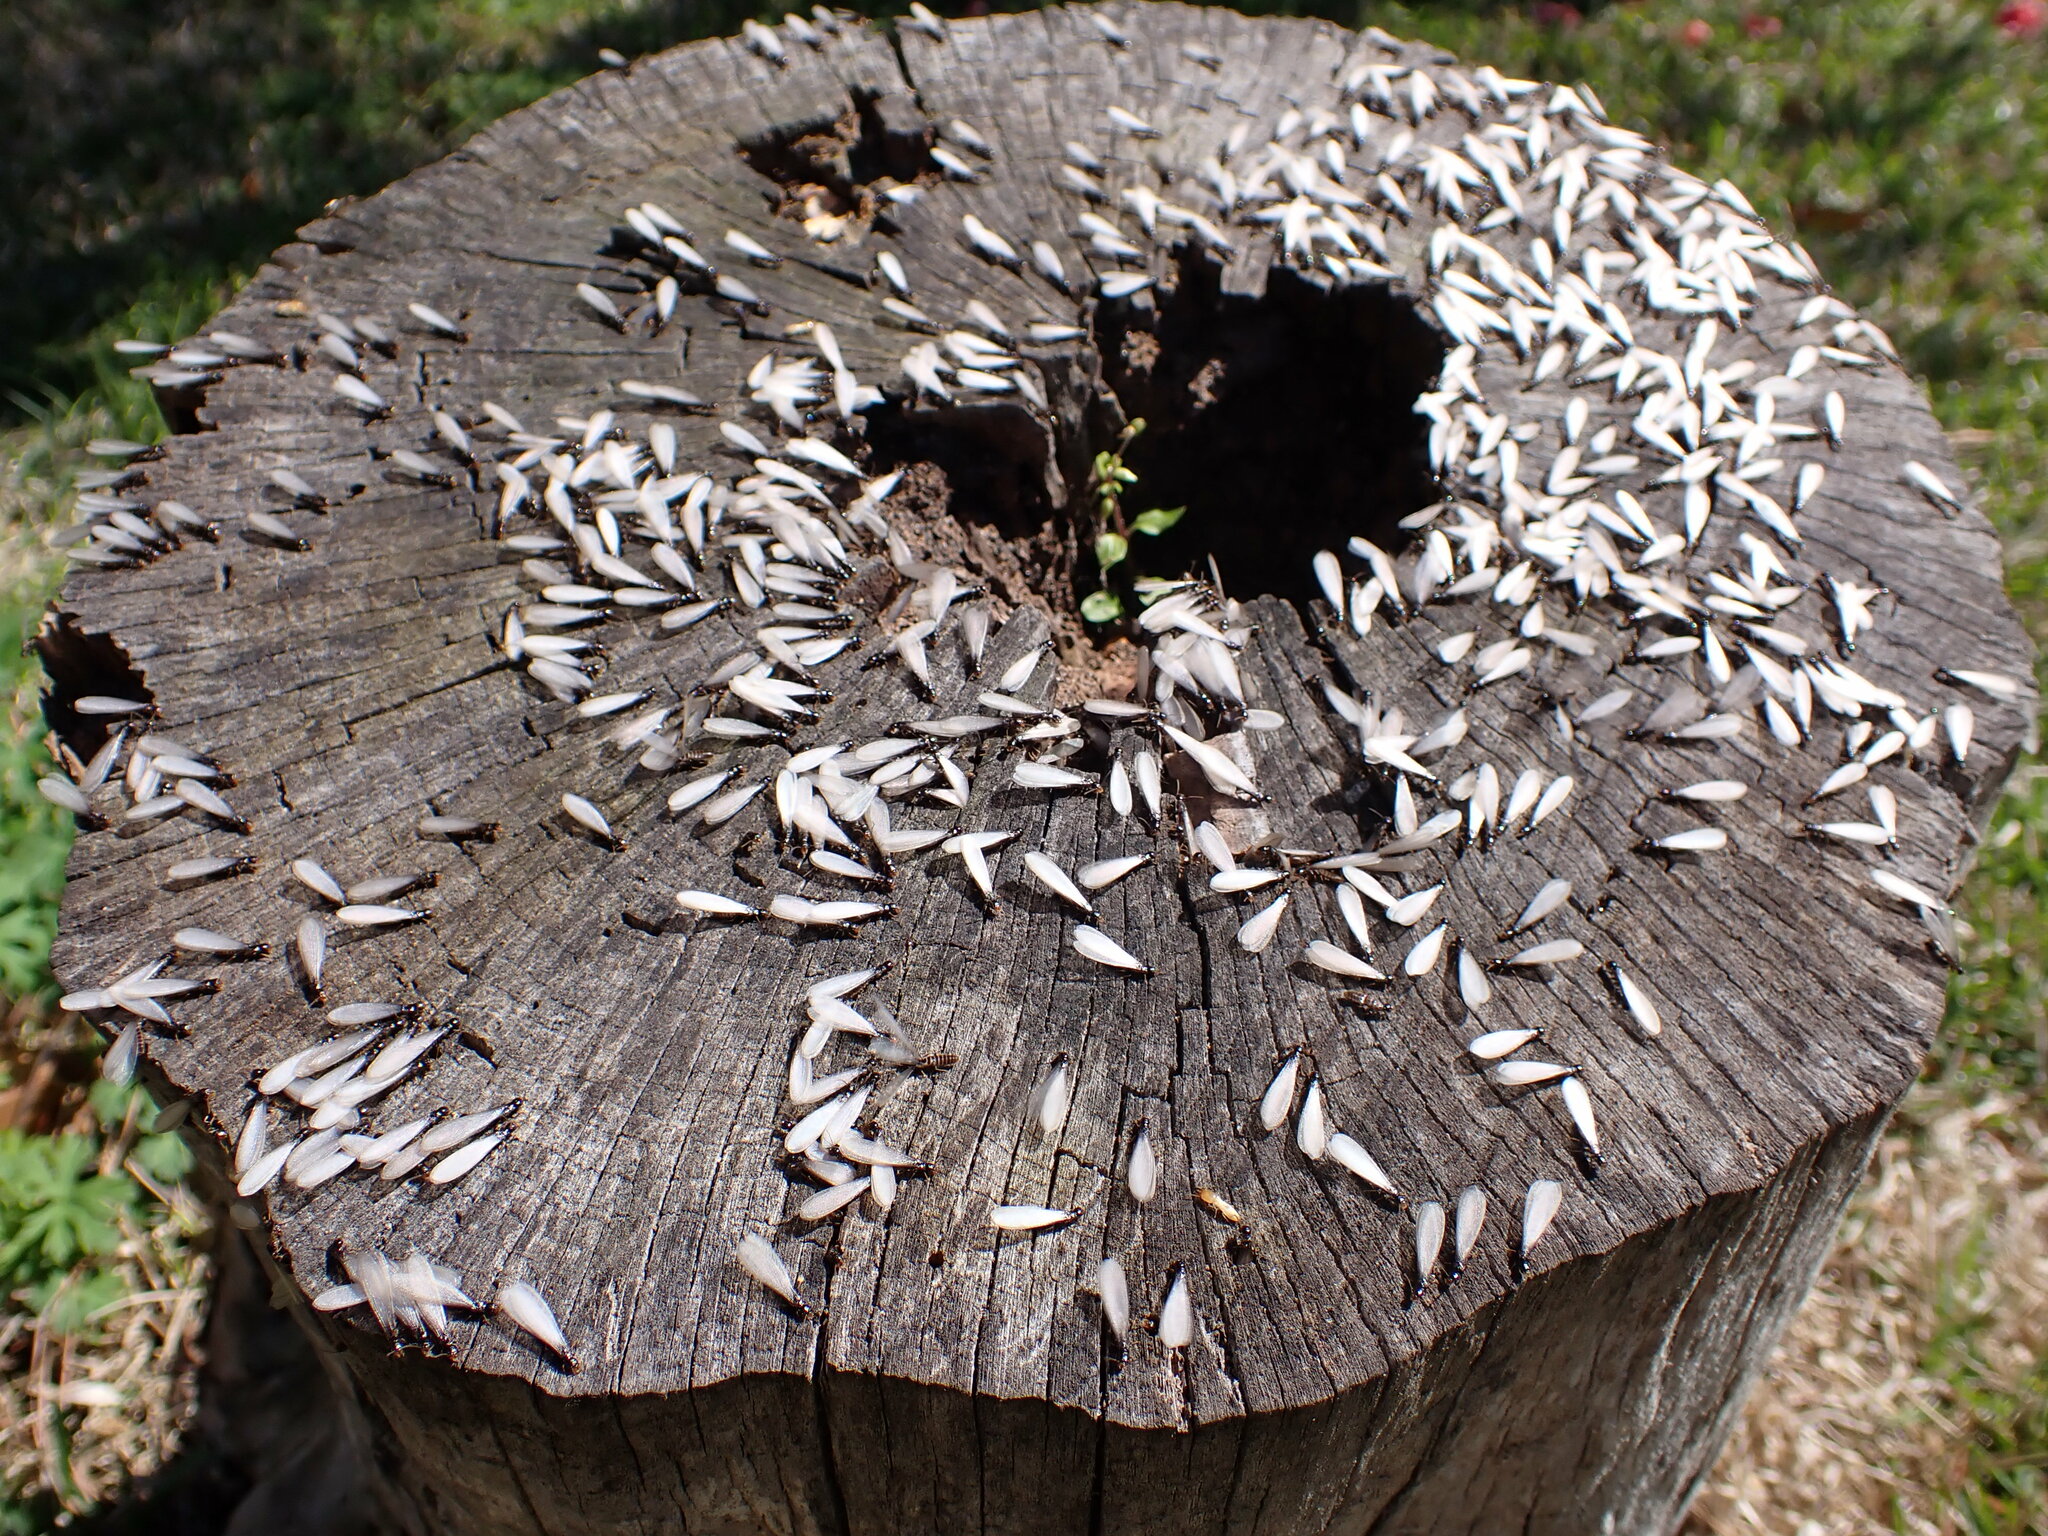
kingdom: Animalia
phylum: Arthropoda
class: Insecta
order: Blattodea
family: Rhinotermitidae
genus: Reticulitermes
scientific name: Reticulitermes flavipes
